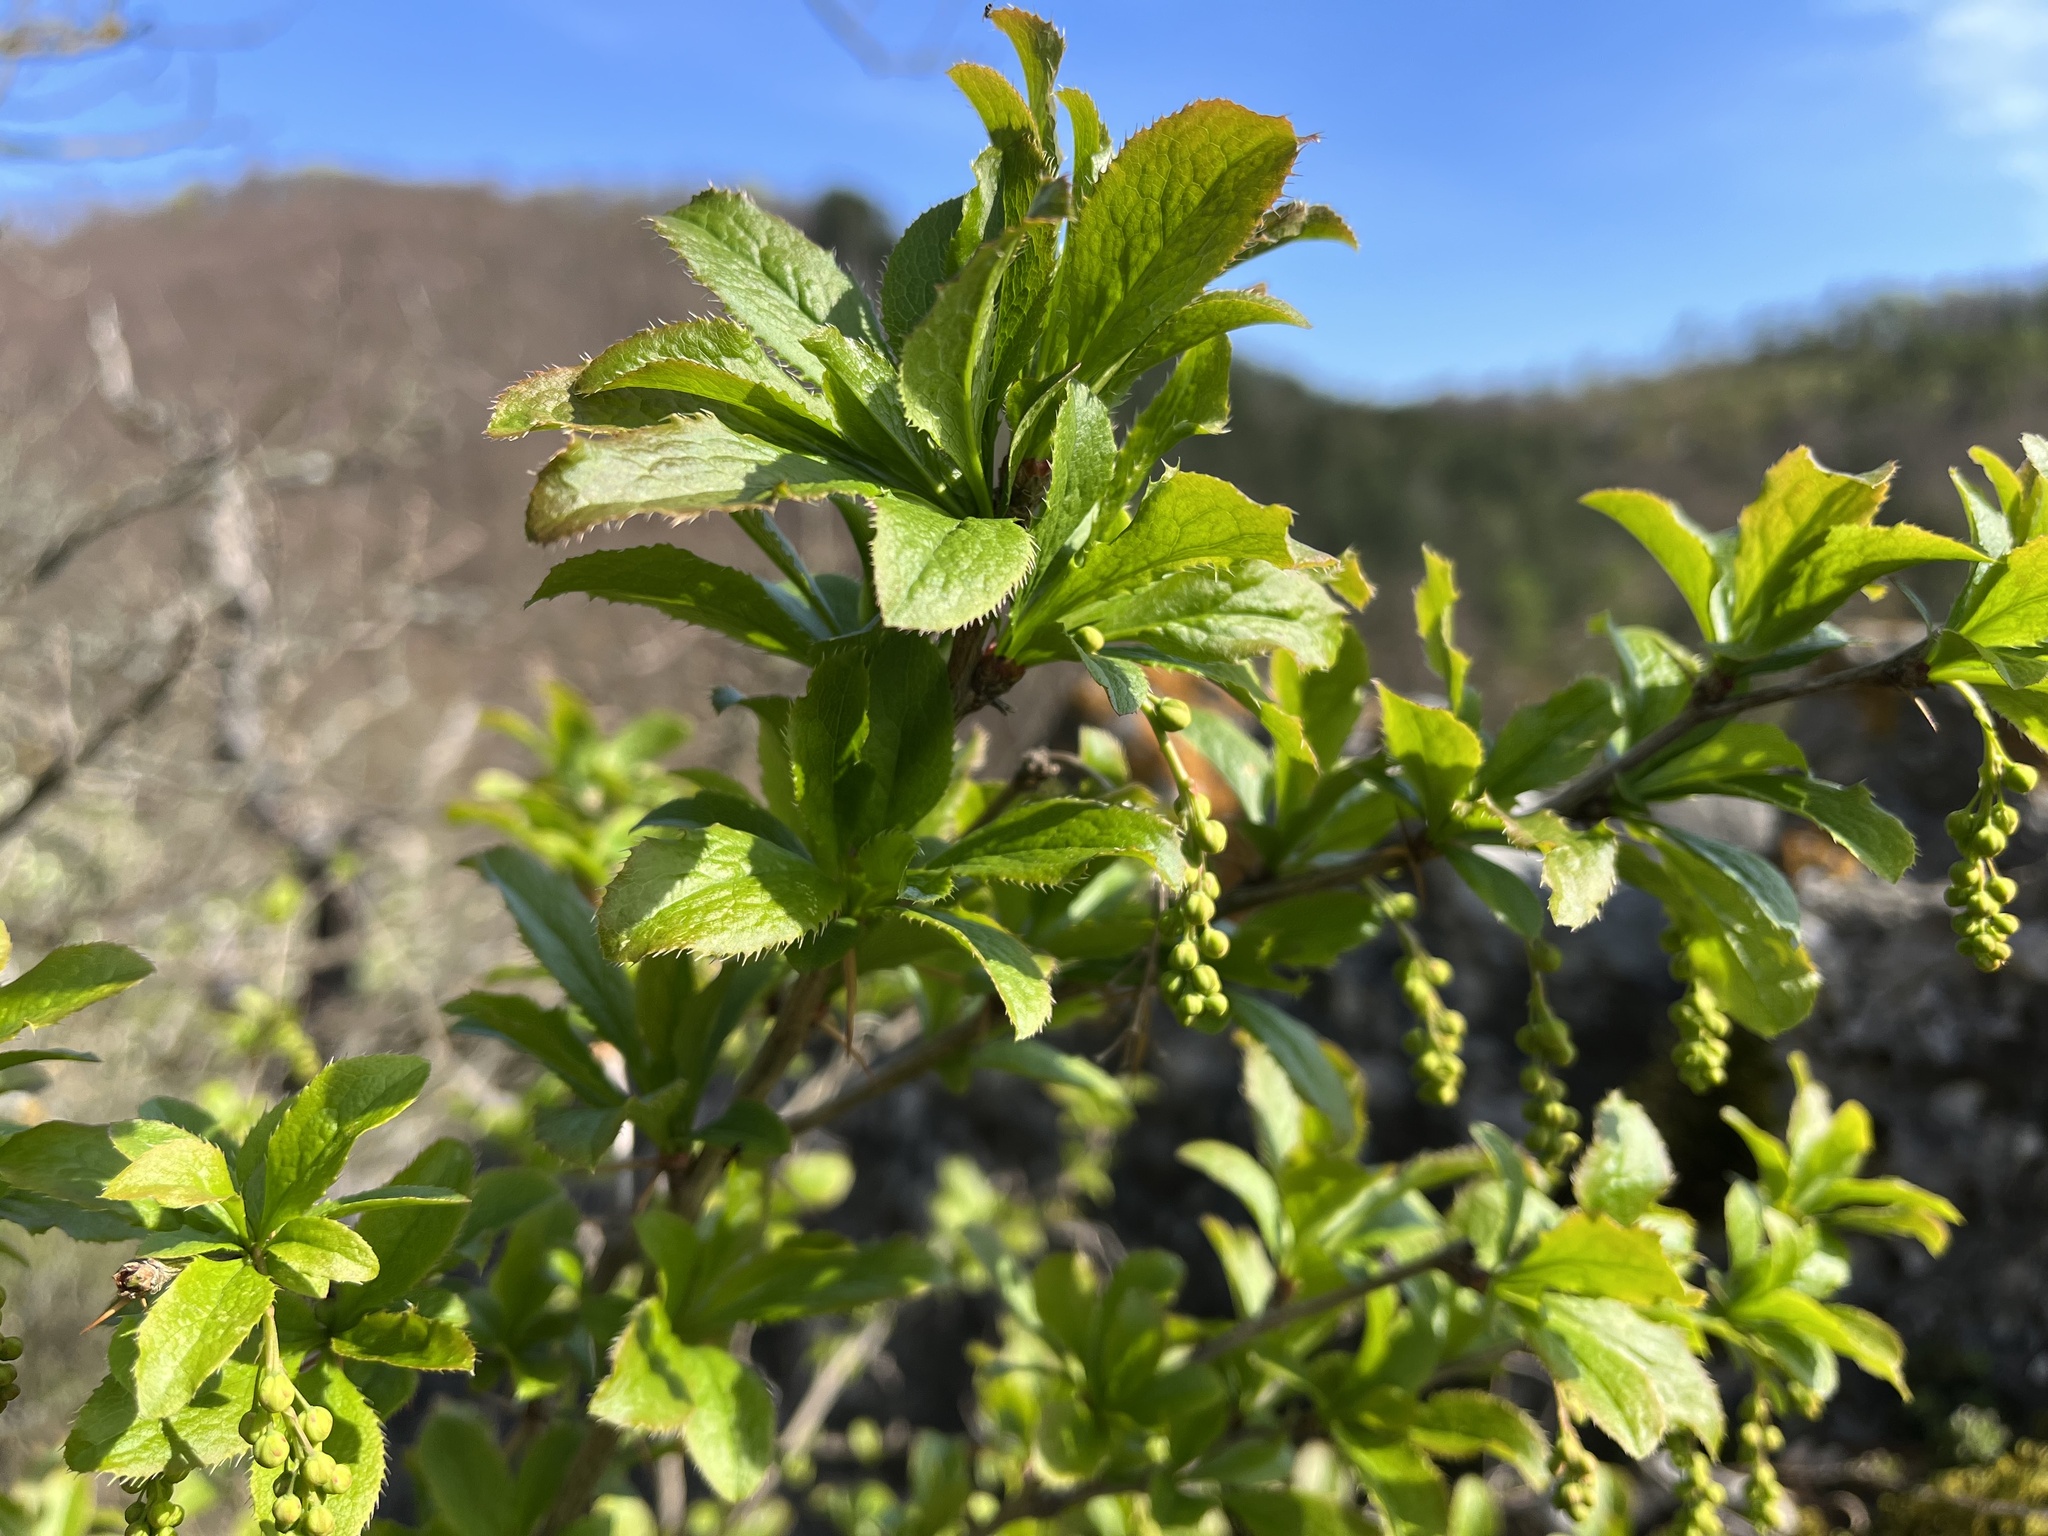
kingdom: Plantae
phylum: Tracheophyta
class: Magnoliopsida
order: Ranunculales
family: Berberidaceae
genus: Berberis
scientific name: Berberis vulgaris
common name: Barberry
